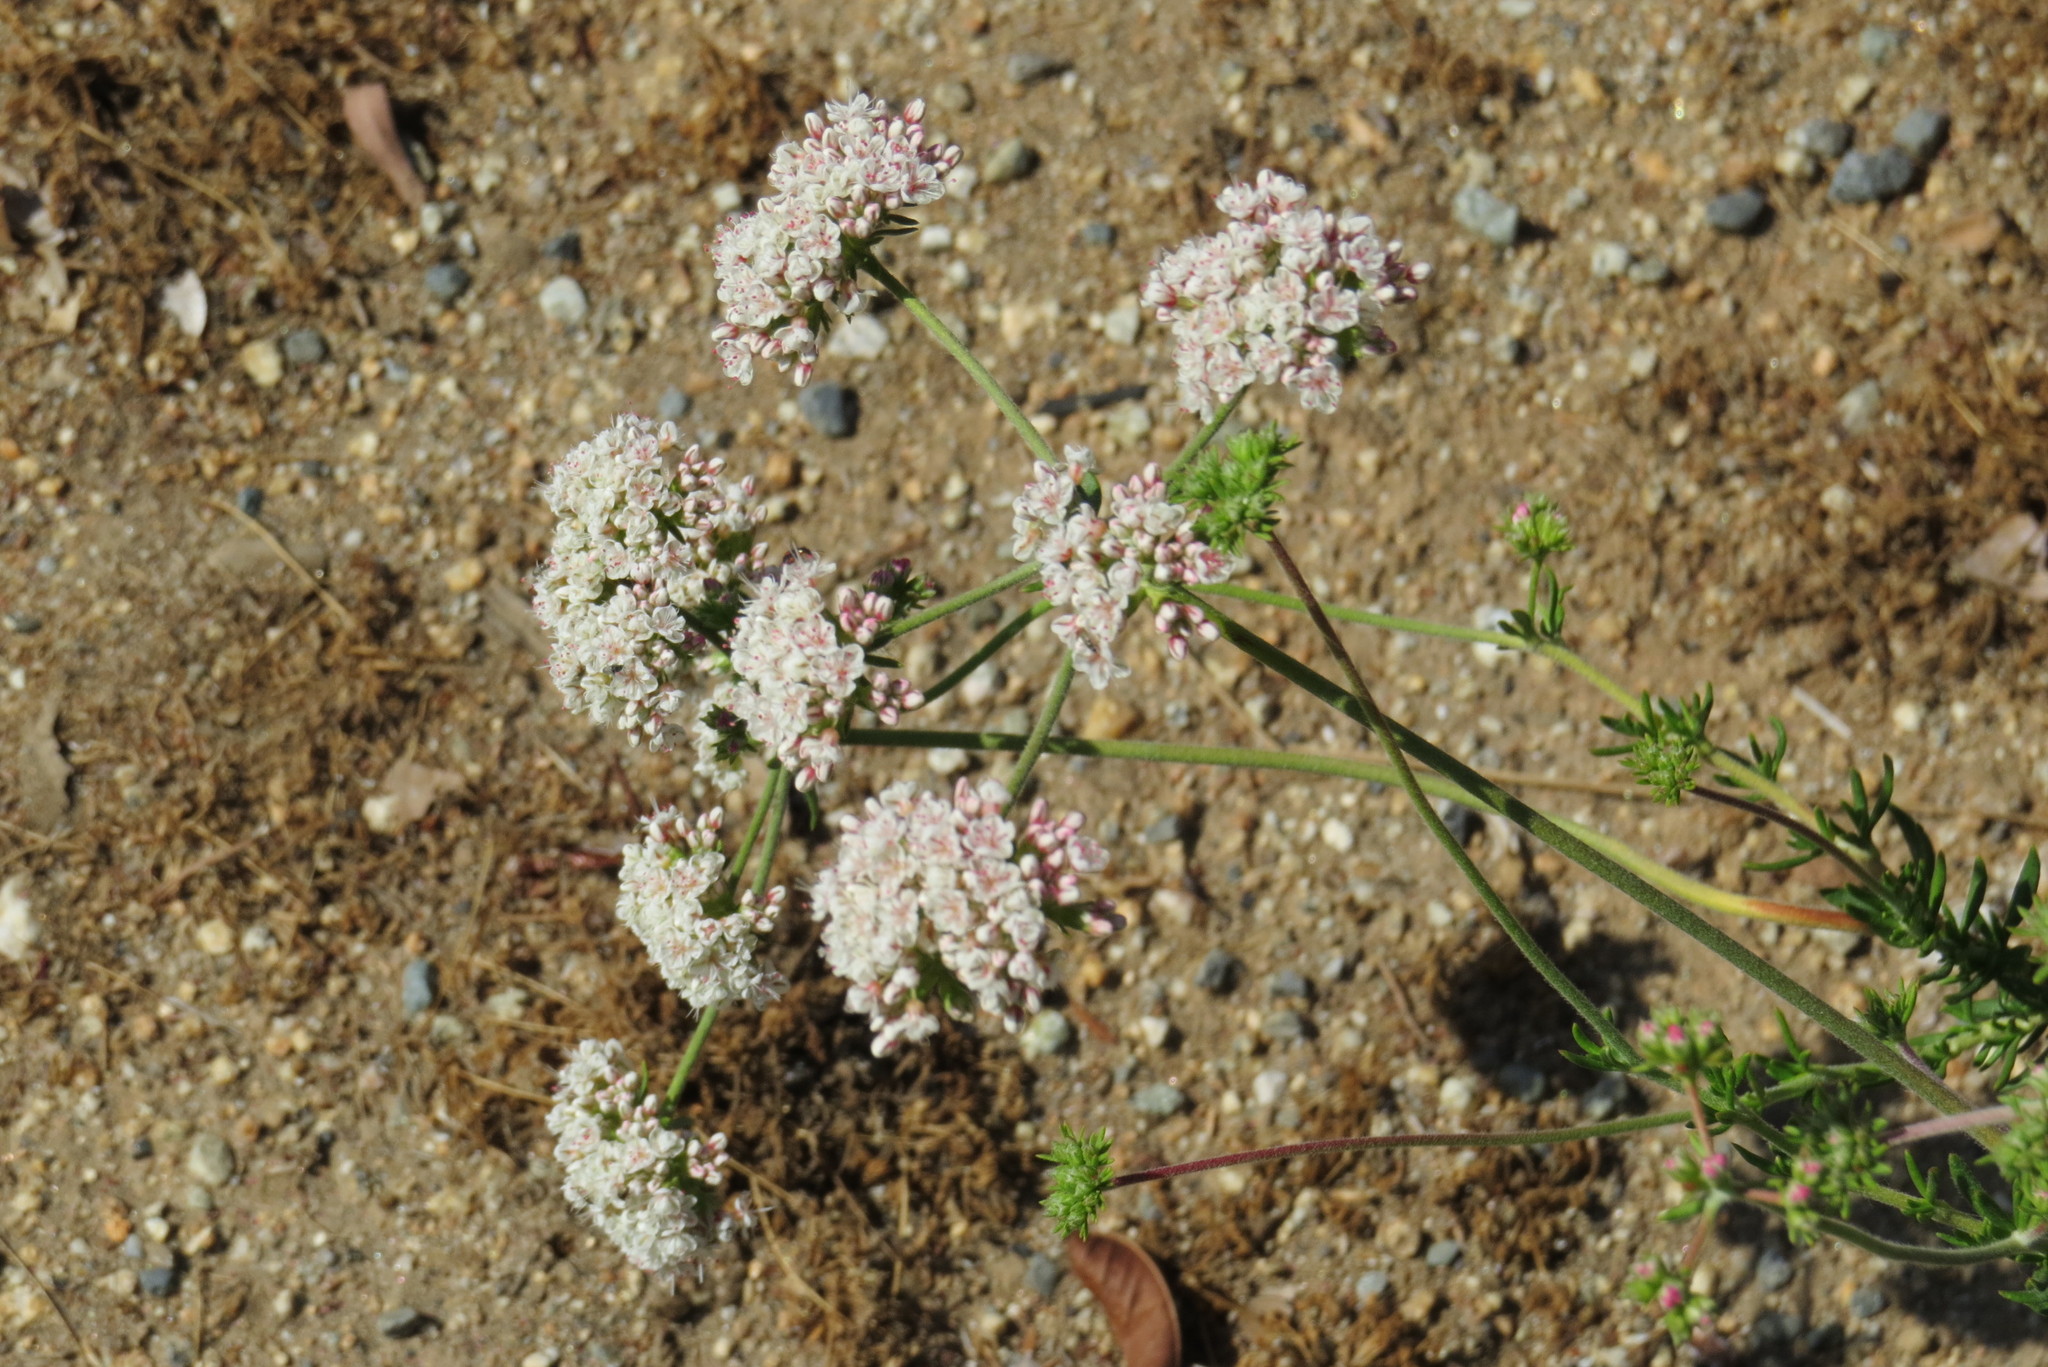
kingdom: Plantae
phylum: Tracheophyta
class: Magnoliopsida
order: Caryophyllales
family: Polygonaceae
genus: Eriogonum
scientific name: Eriogonum fasciculatum
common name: California wild buckwheat
